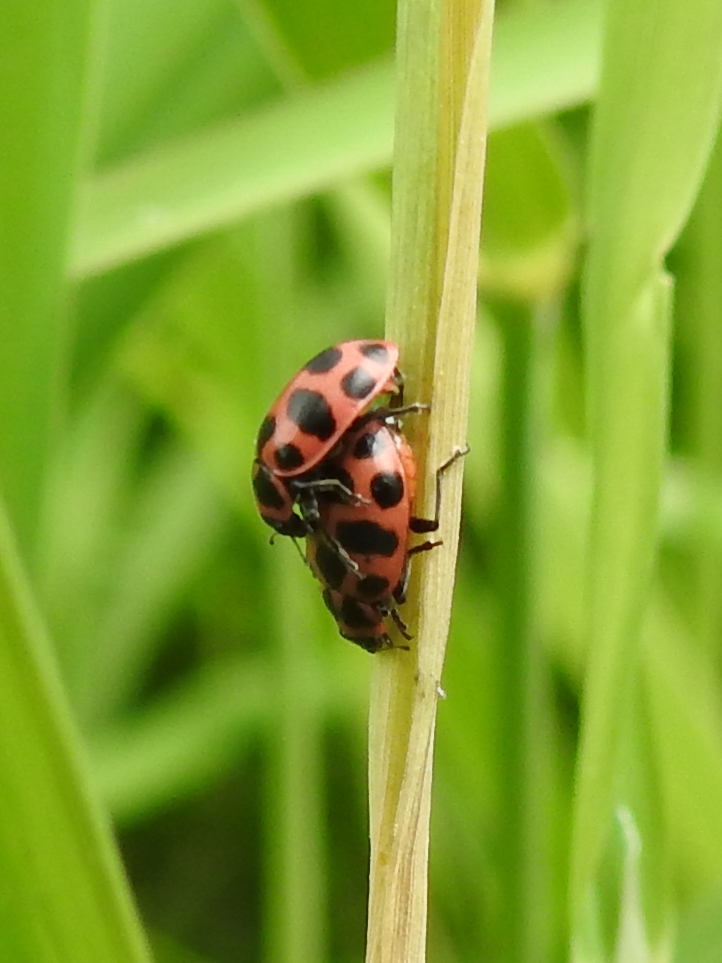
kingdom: Animalia
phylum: Arthropoda
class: Insecta
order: Coleoptera
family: Coccinellidae
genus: Coleomegilla
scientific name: Coleomegilla maculata
